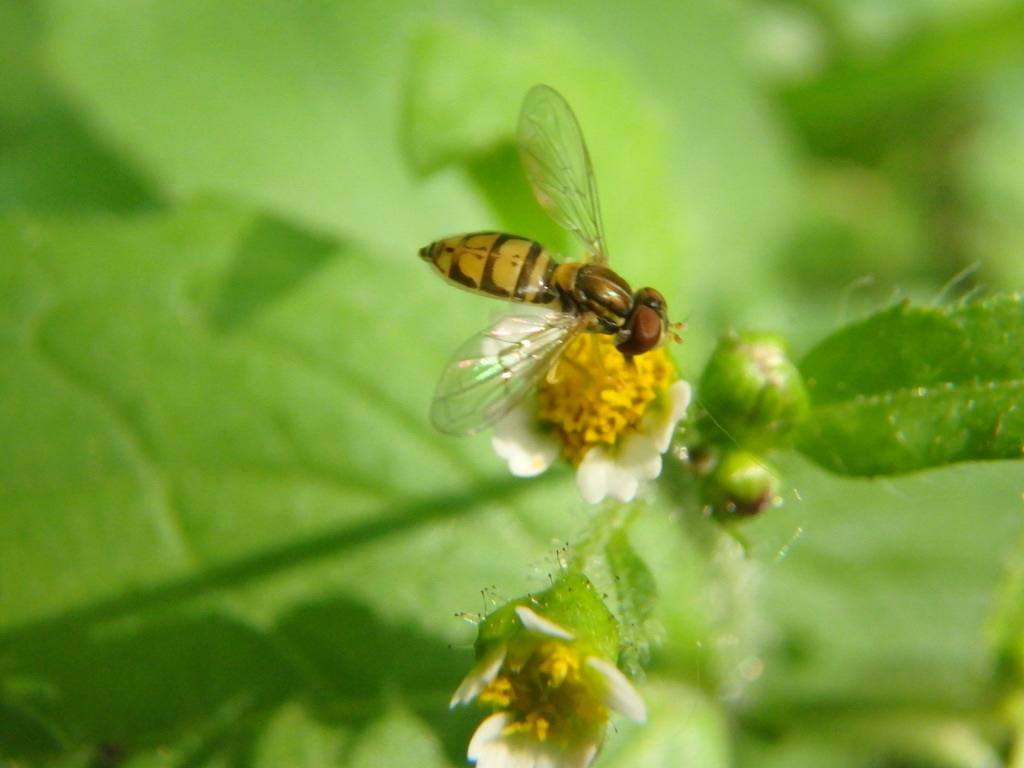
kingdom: Animalia
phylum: Arthropoda
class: Insecta
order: Diptera
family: Syrphidae
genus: Toxomerus
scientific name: Toxomerus marginatus
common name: Syrphid fly
